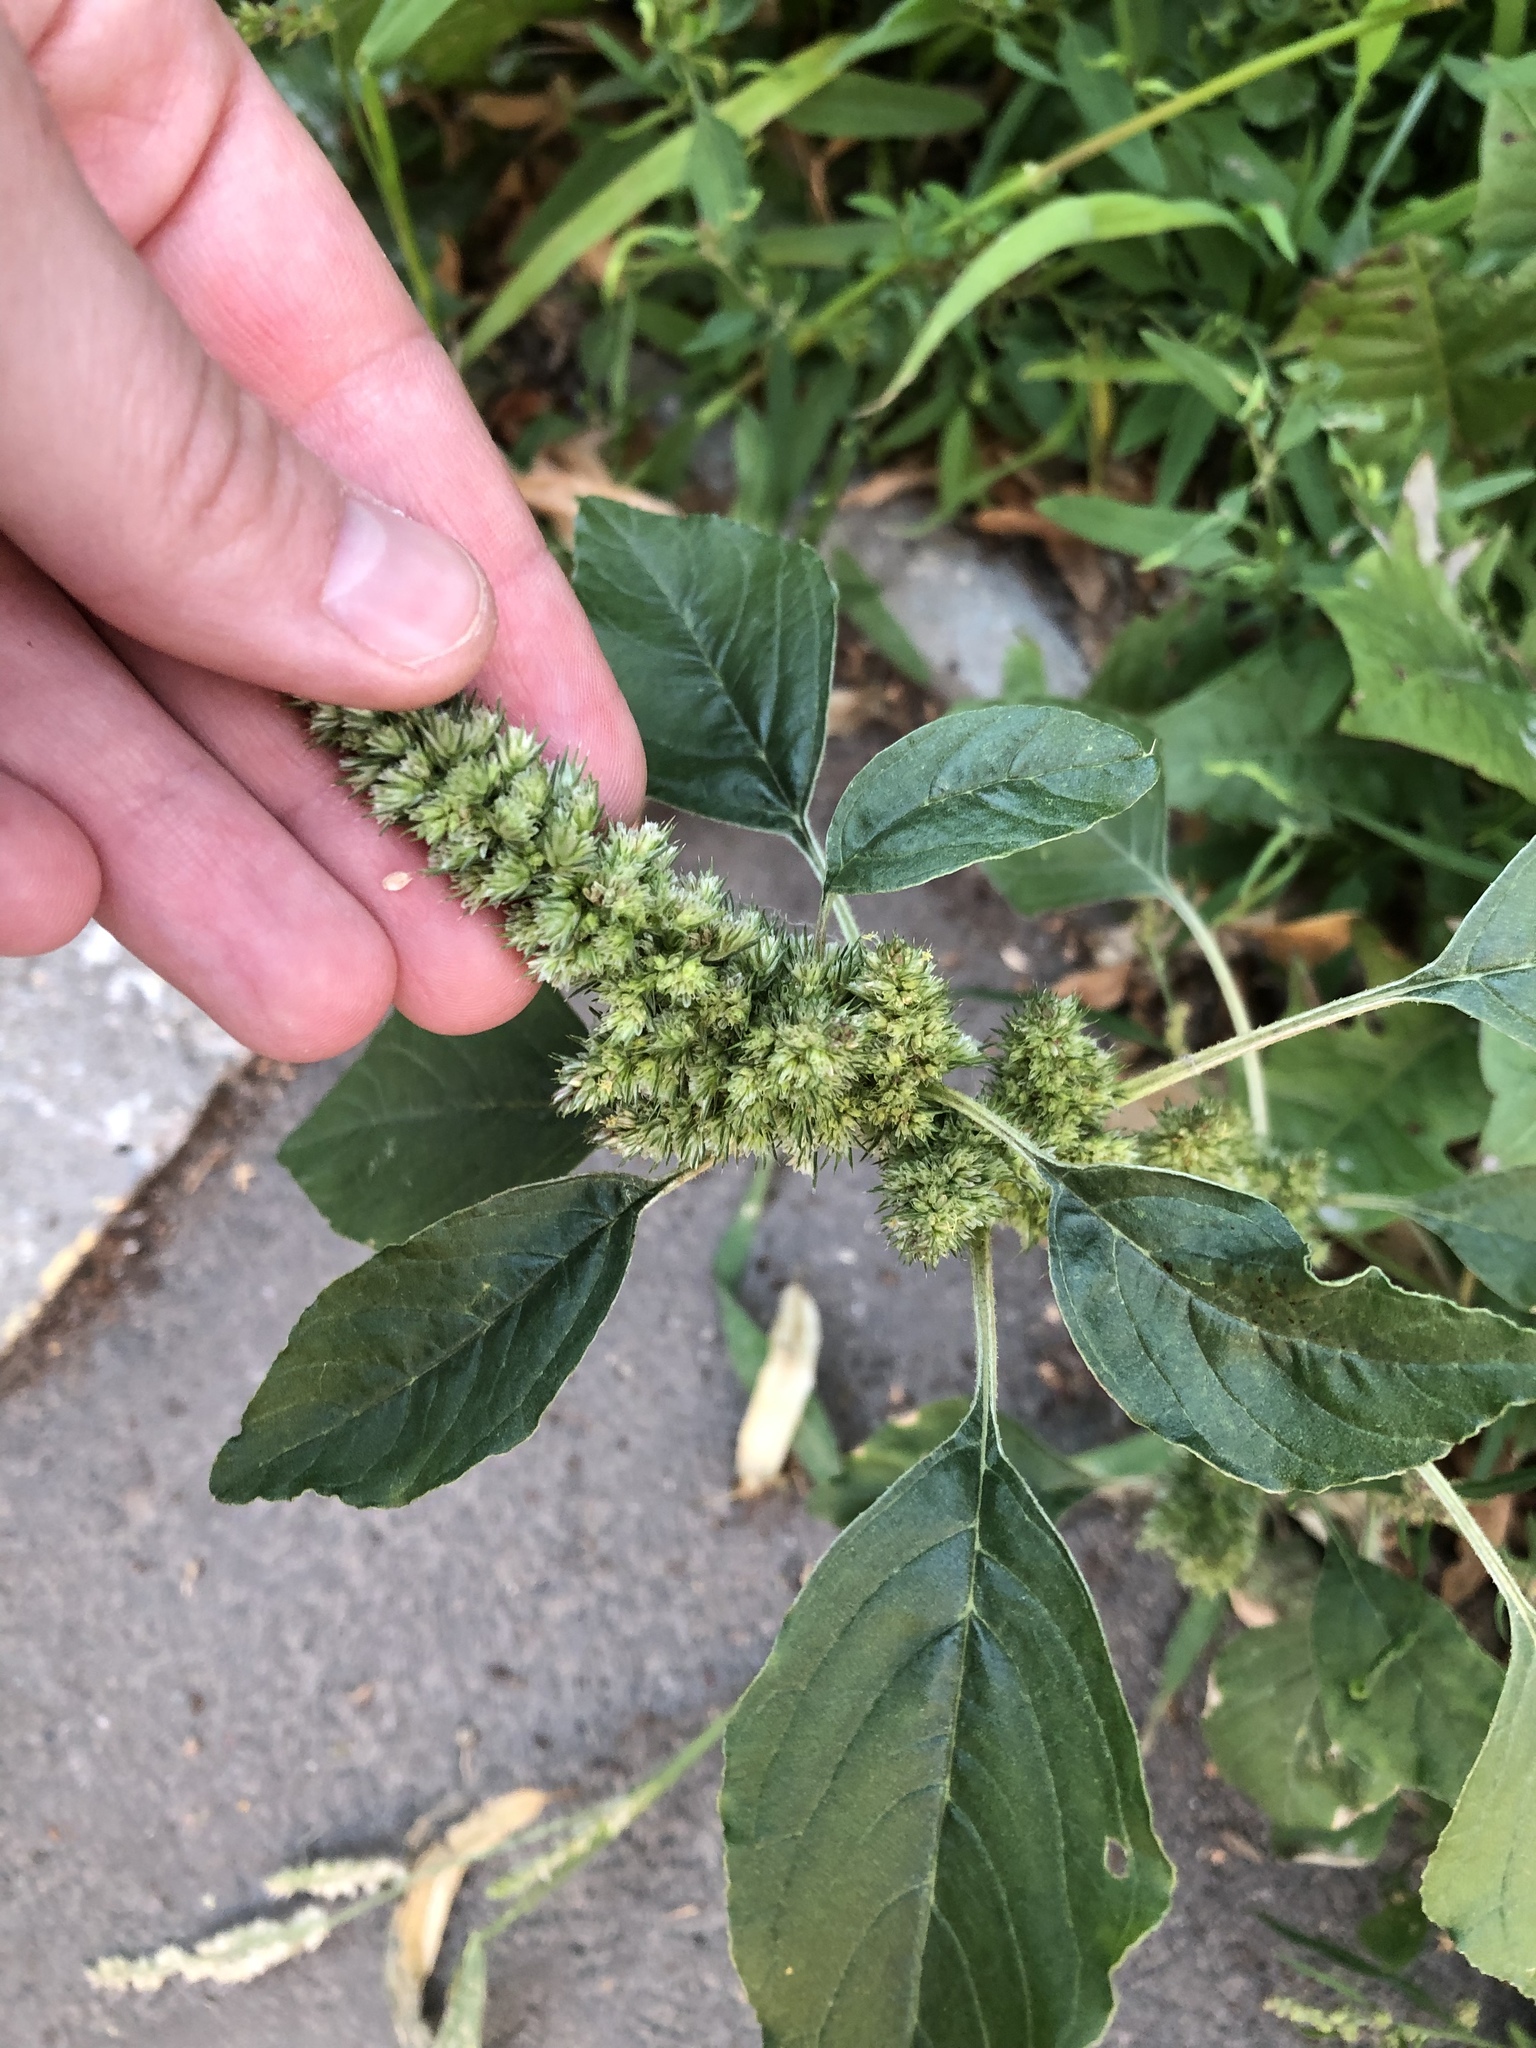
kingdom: Plantae
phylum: Tracheophyta
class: Magnoliopsida
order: Caryophyllales
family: Amaranthaceae
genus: Amaranthus
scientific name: Amaranthus retroflexus
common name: Redroot amaranth
